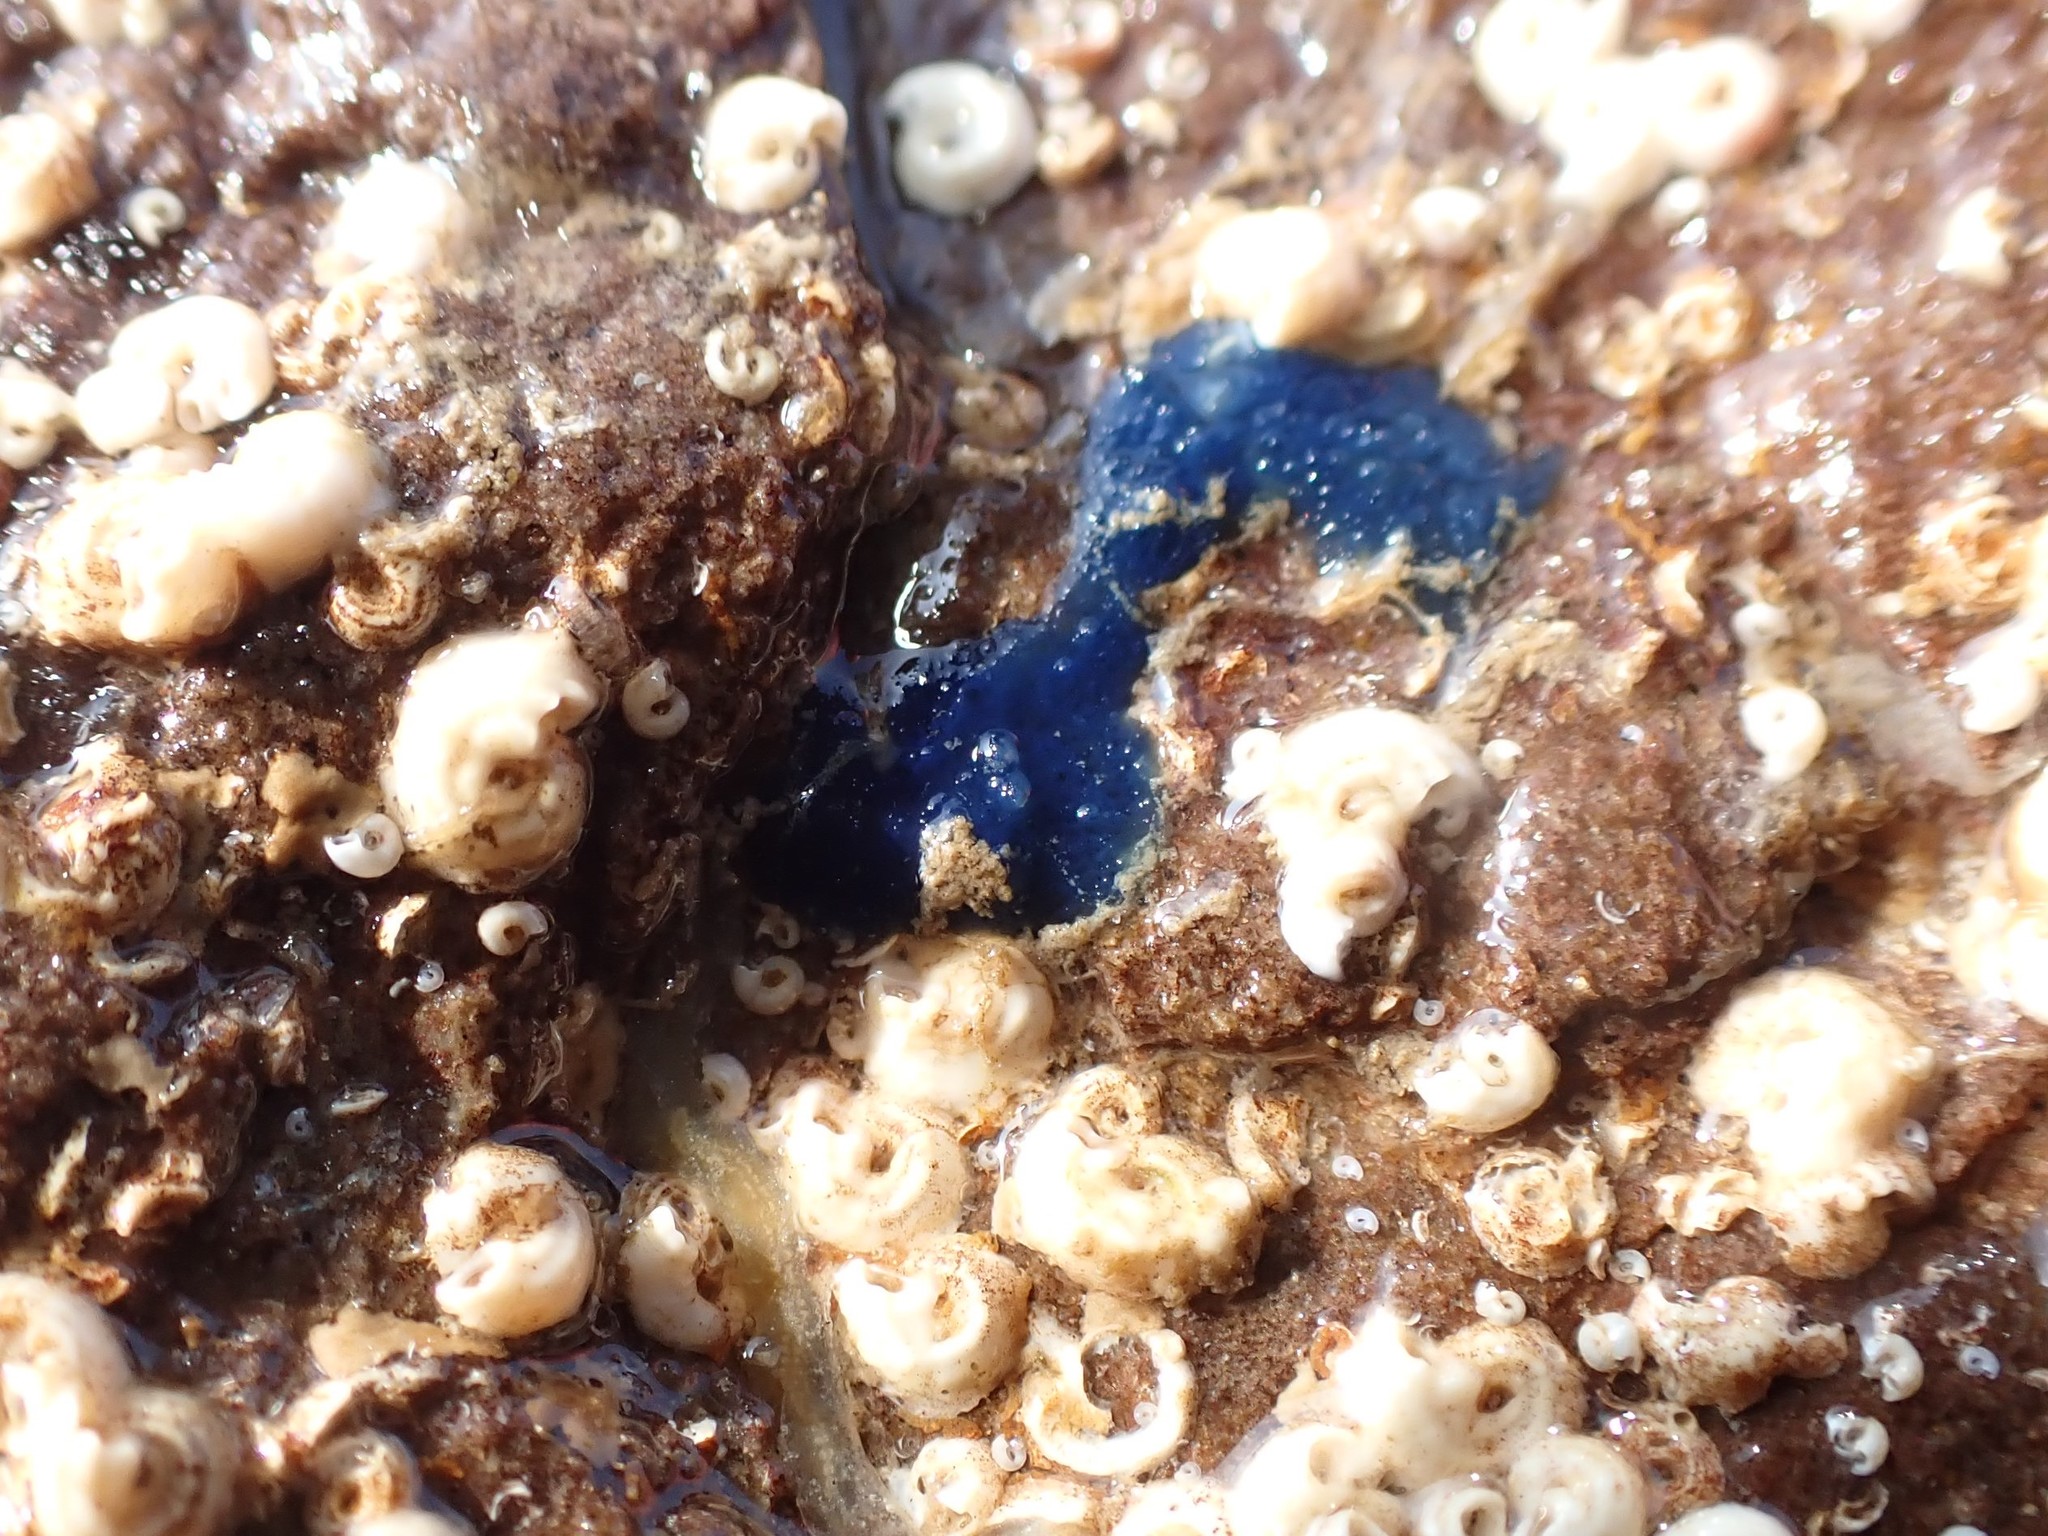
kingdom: Animalia
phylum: Porifera
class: Demospongiae
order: Suberitida
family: Suberitidae
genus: Terpios
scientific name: Terpios gelatinosus
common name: Blue encrusting sponge
